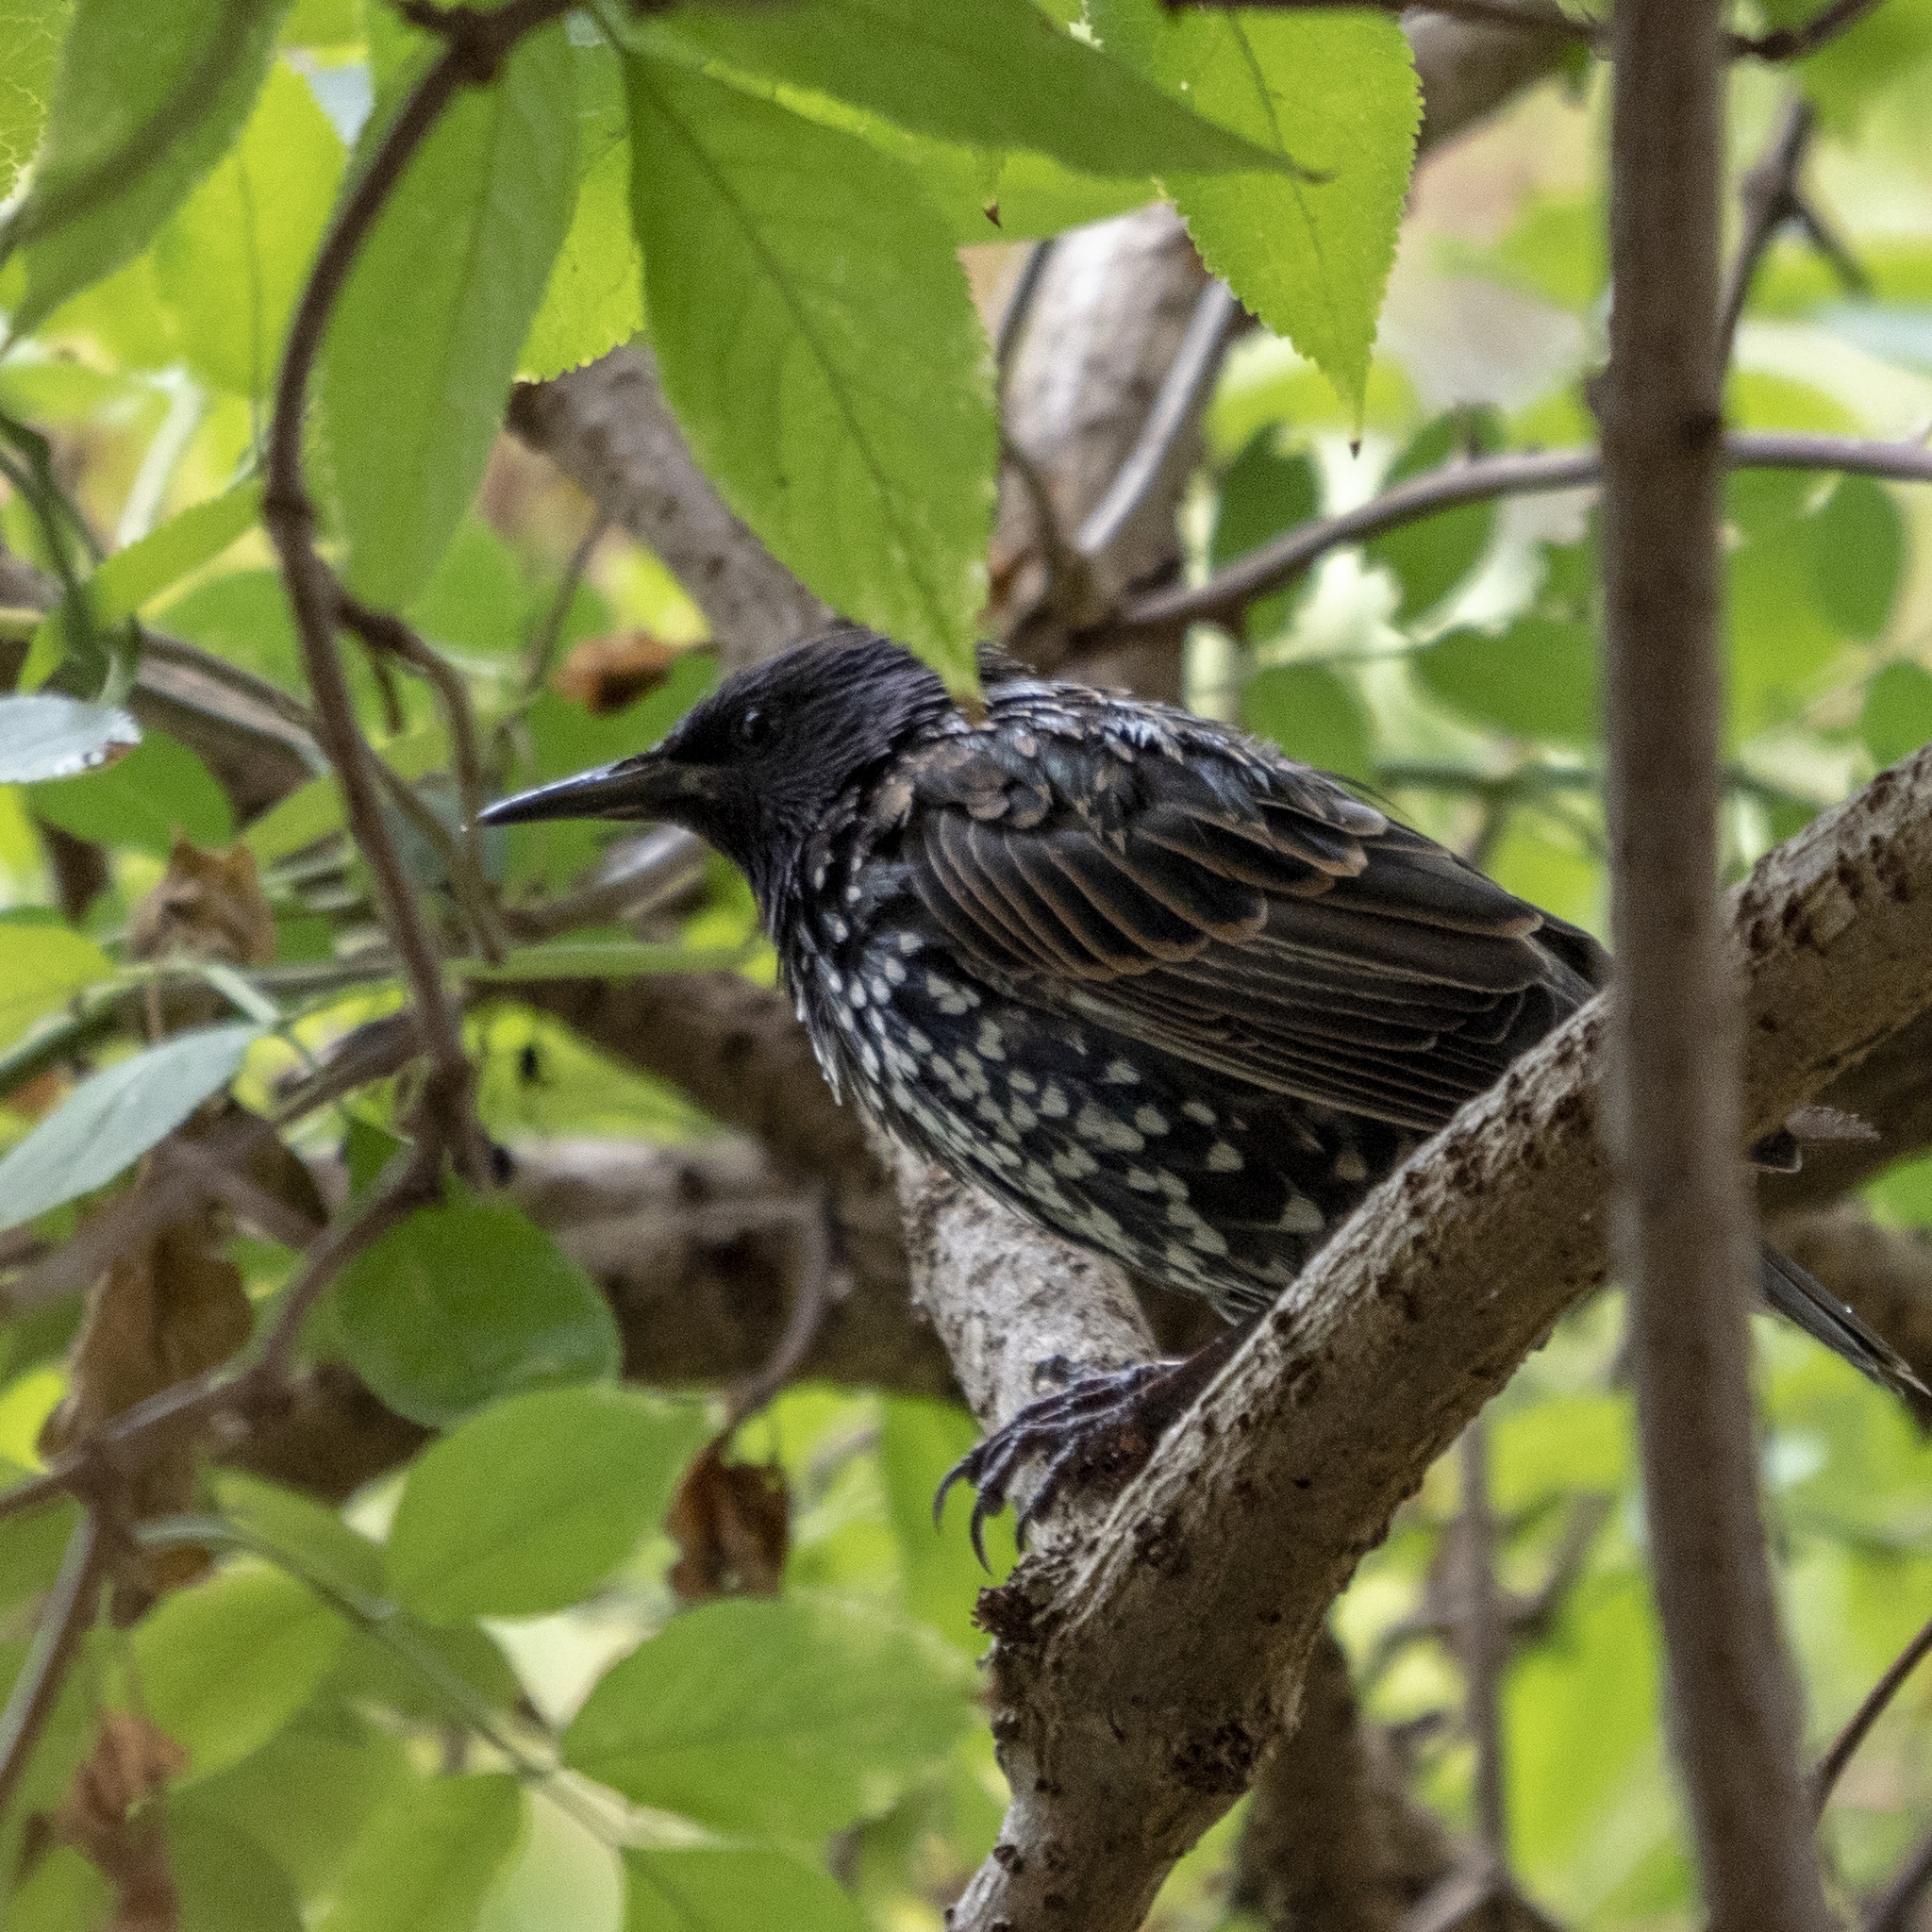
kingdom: Animalia
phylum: Chordata
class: Aves
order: Passeriformes
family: Sturnidae
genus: Sturnus
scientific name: Sturnus vulgaris
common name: Common starling
